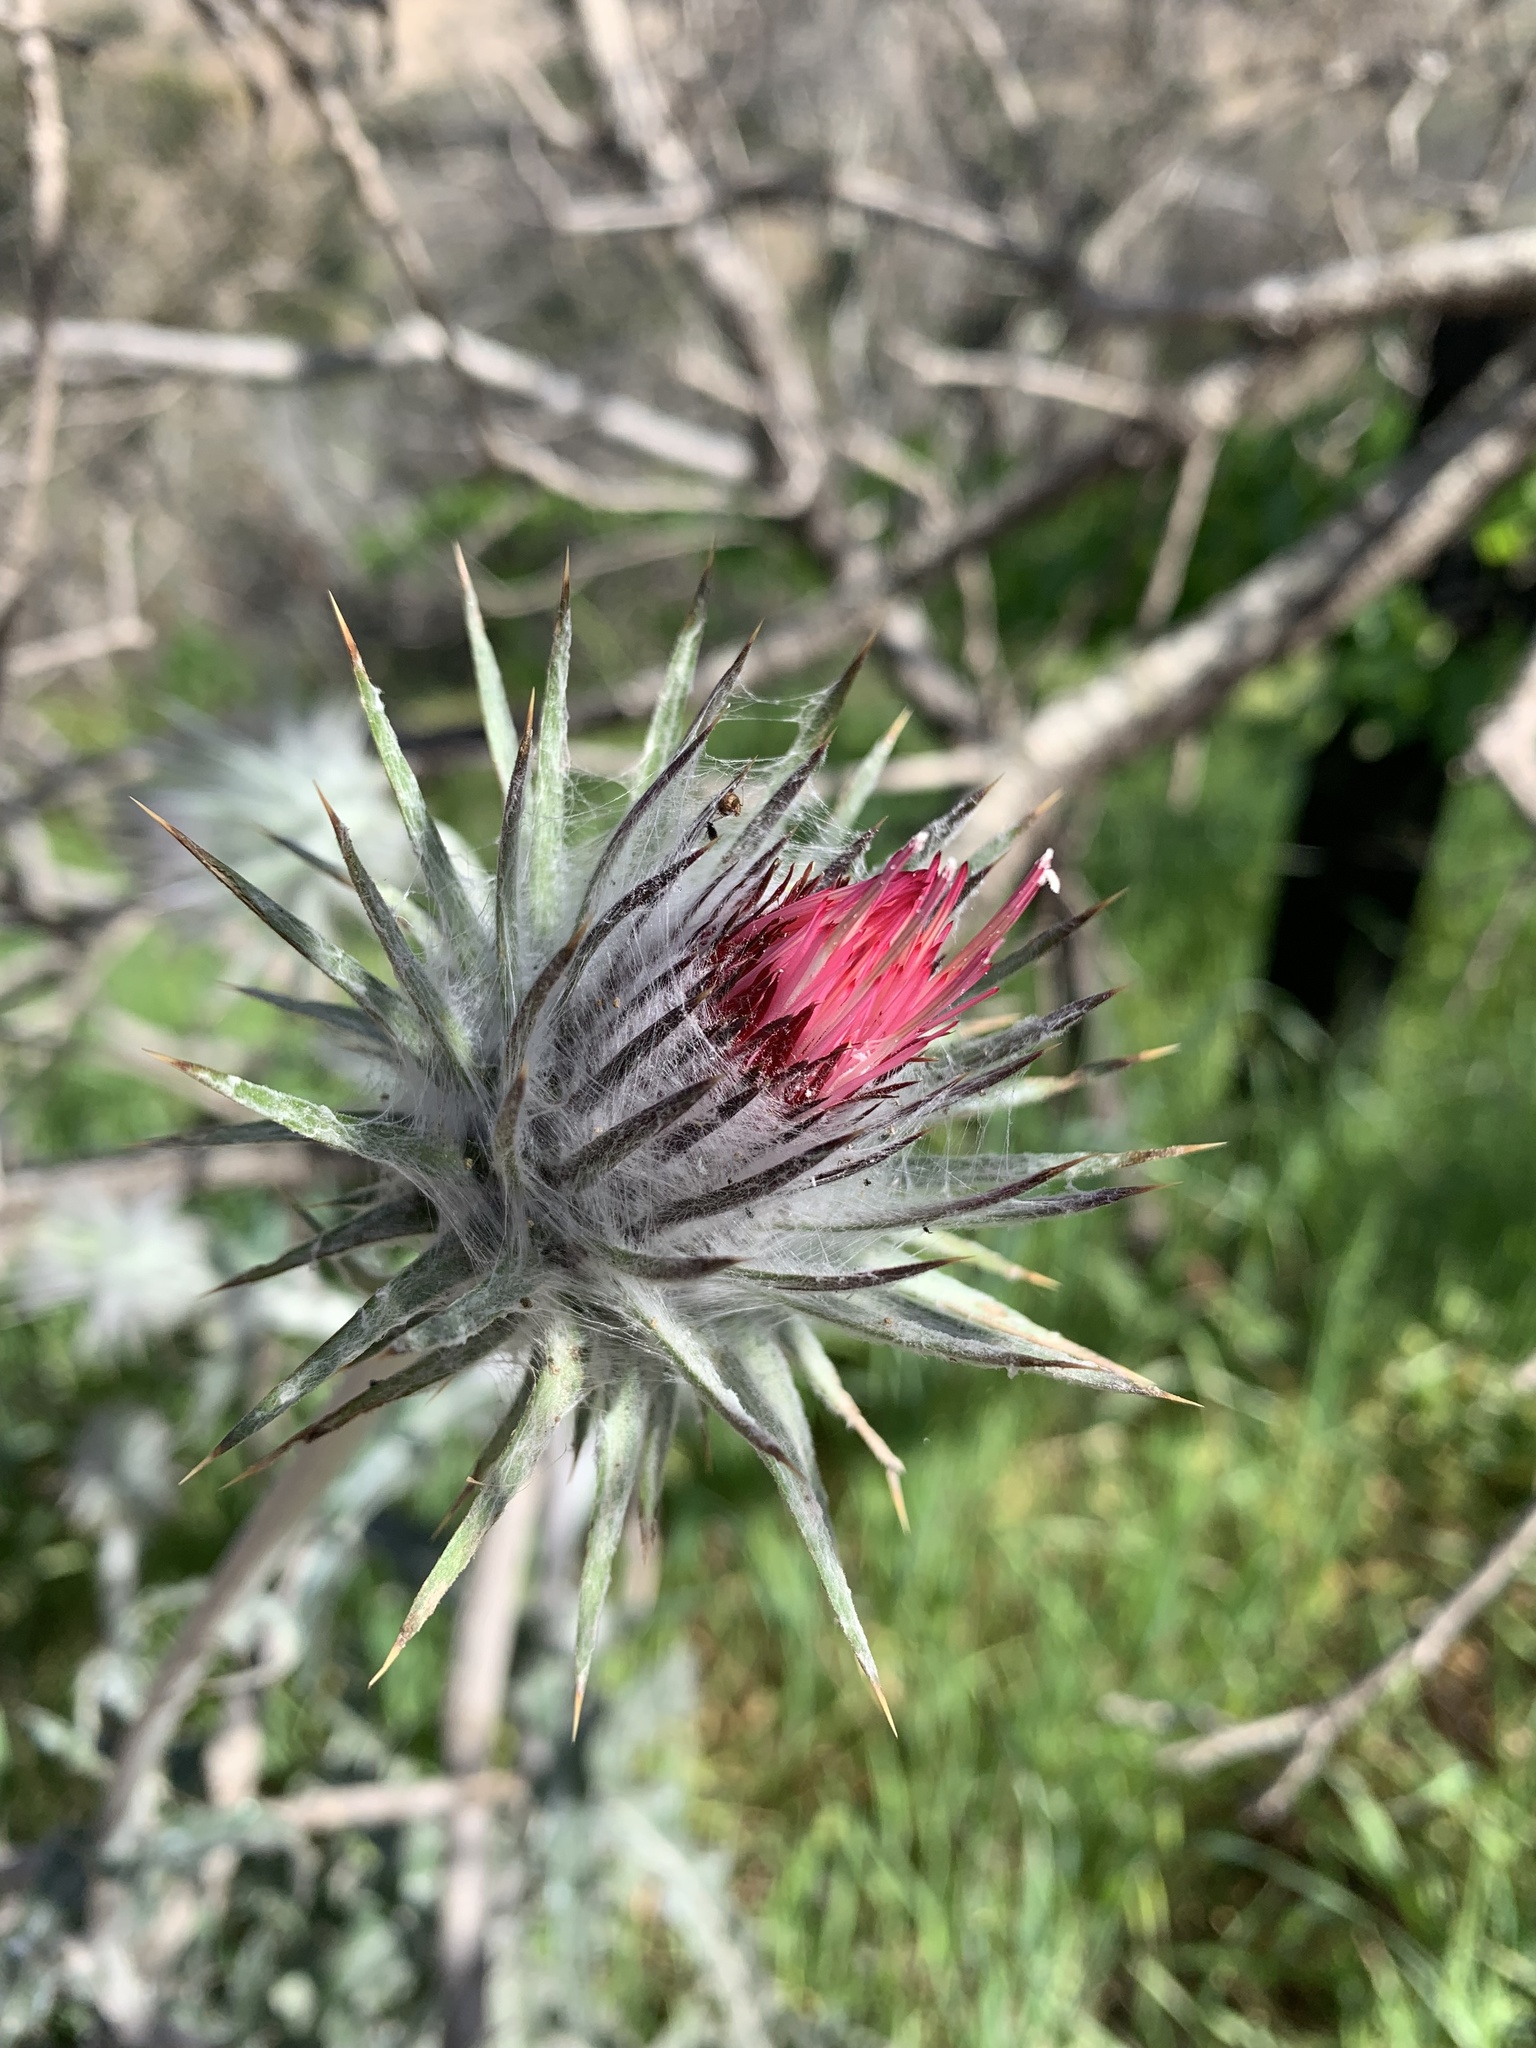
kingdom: Plantae
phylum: Tracheophyta
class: Magnoliopsida
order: Asterales
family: Asteraceae
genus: Cirsium
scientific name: Cirsium occidentale
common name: Western thistle
